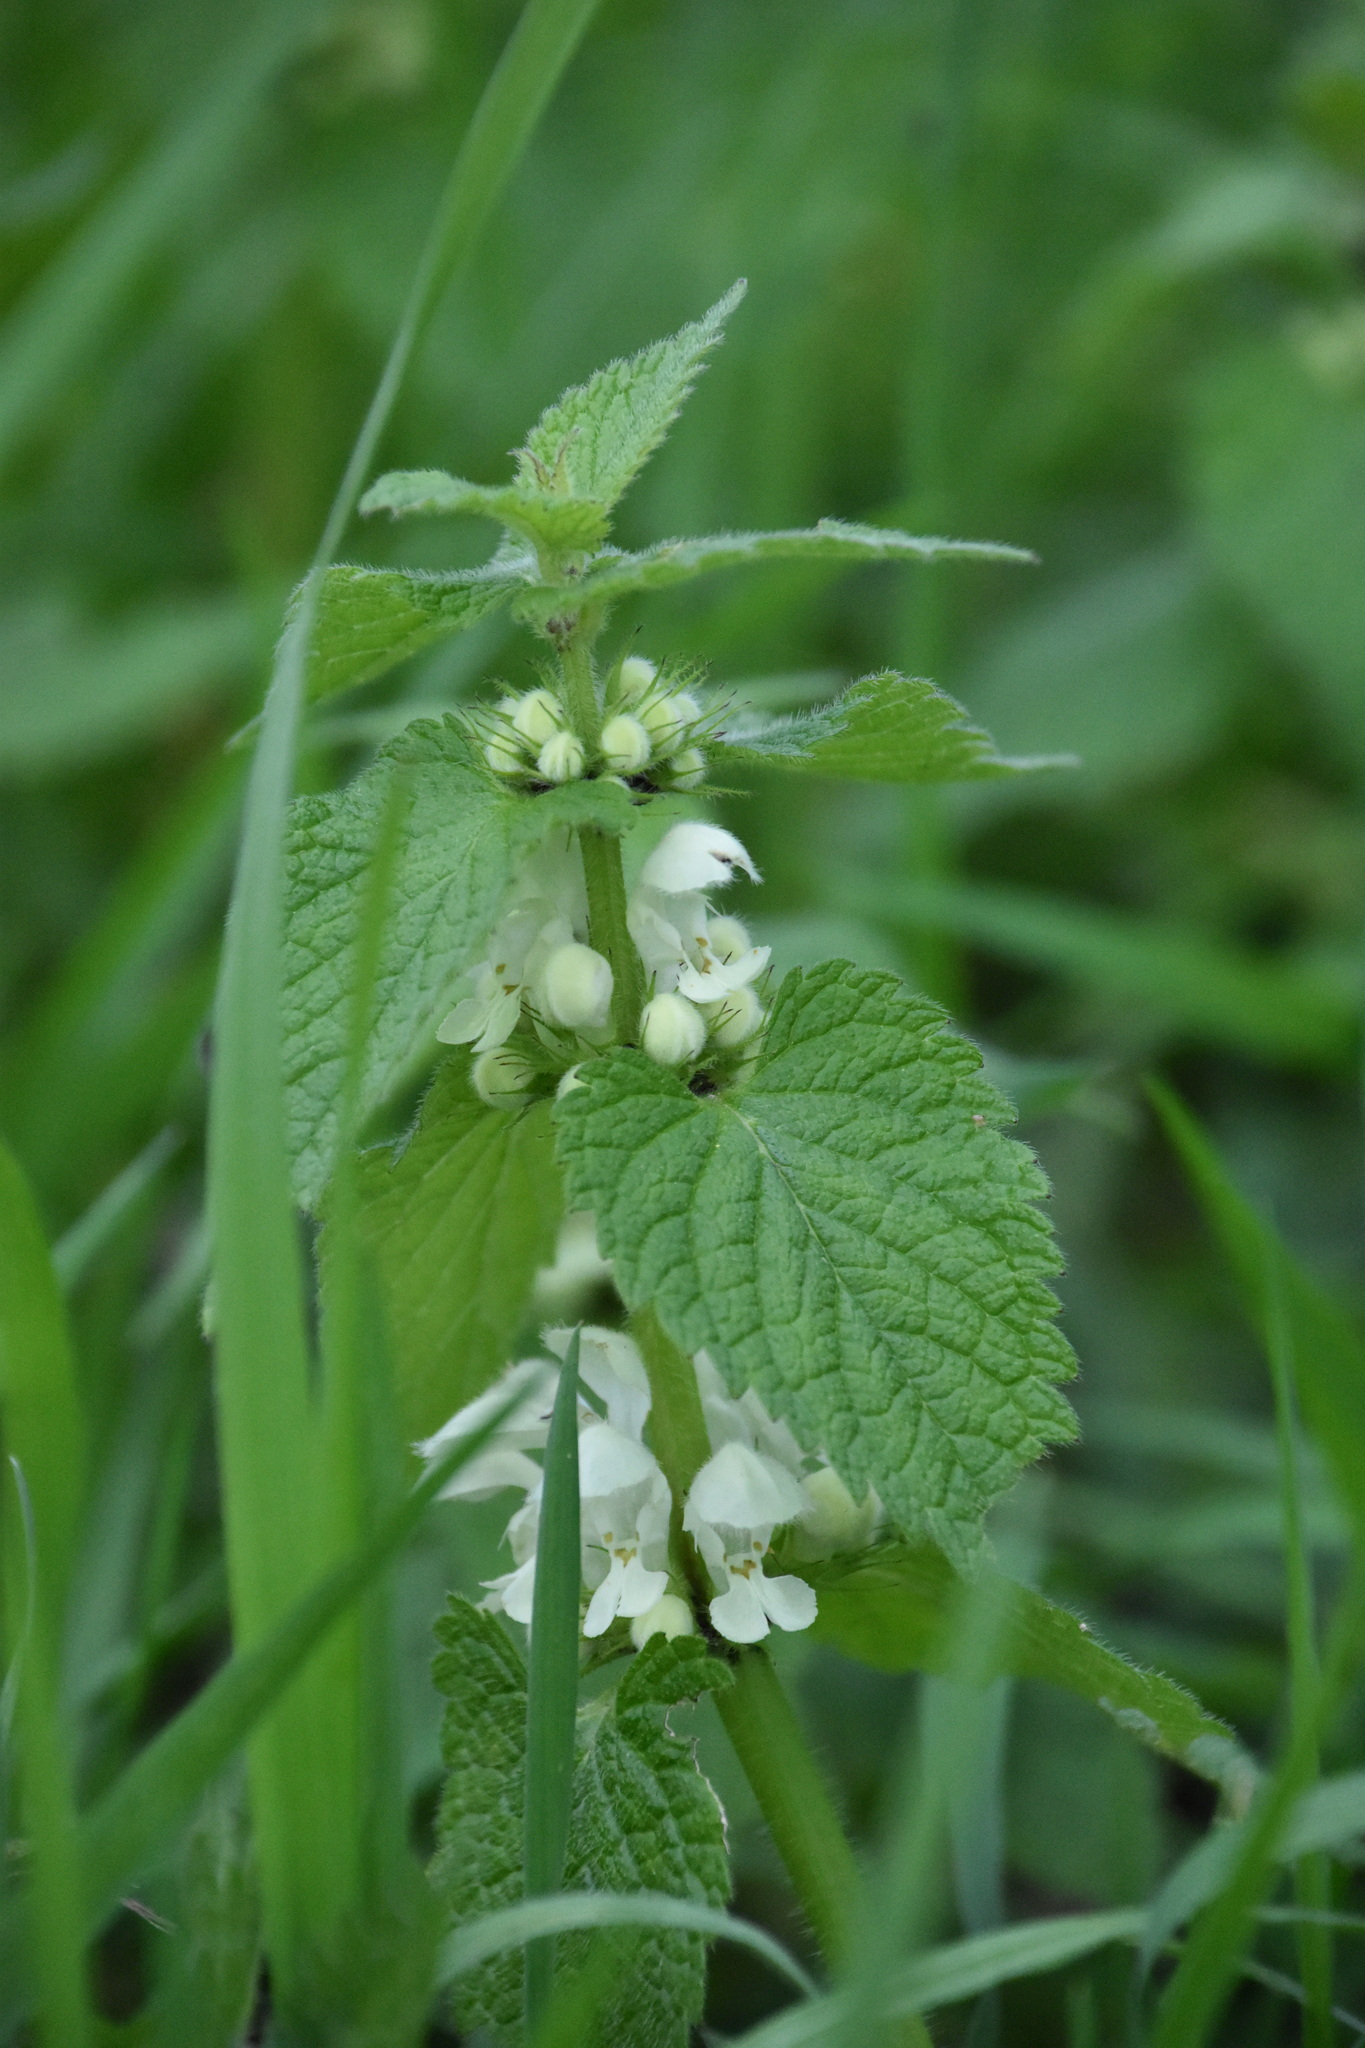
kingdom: Plantae
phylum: Tracheophyta
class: Magnoliopsida
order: Lamiales
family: Lamiaceae
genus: Lamium
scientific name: Lamium album
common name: White dead-nettle
